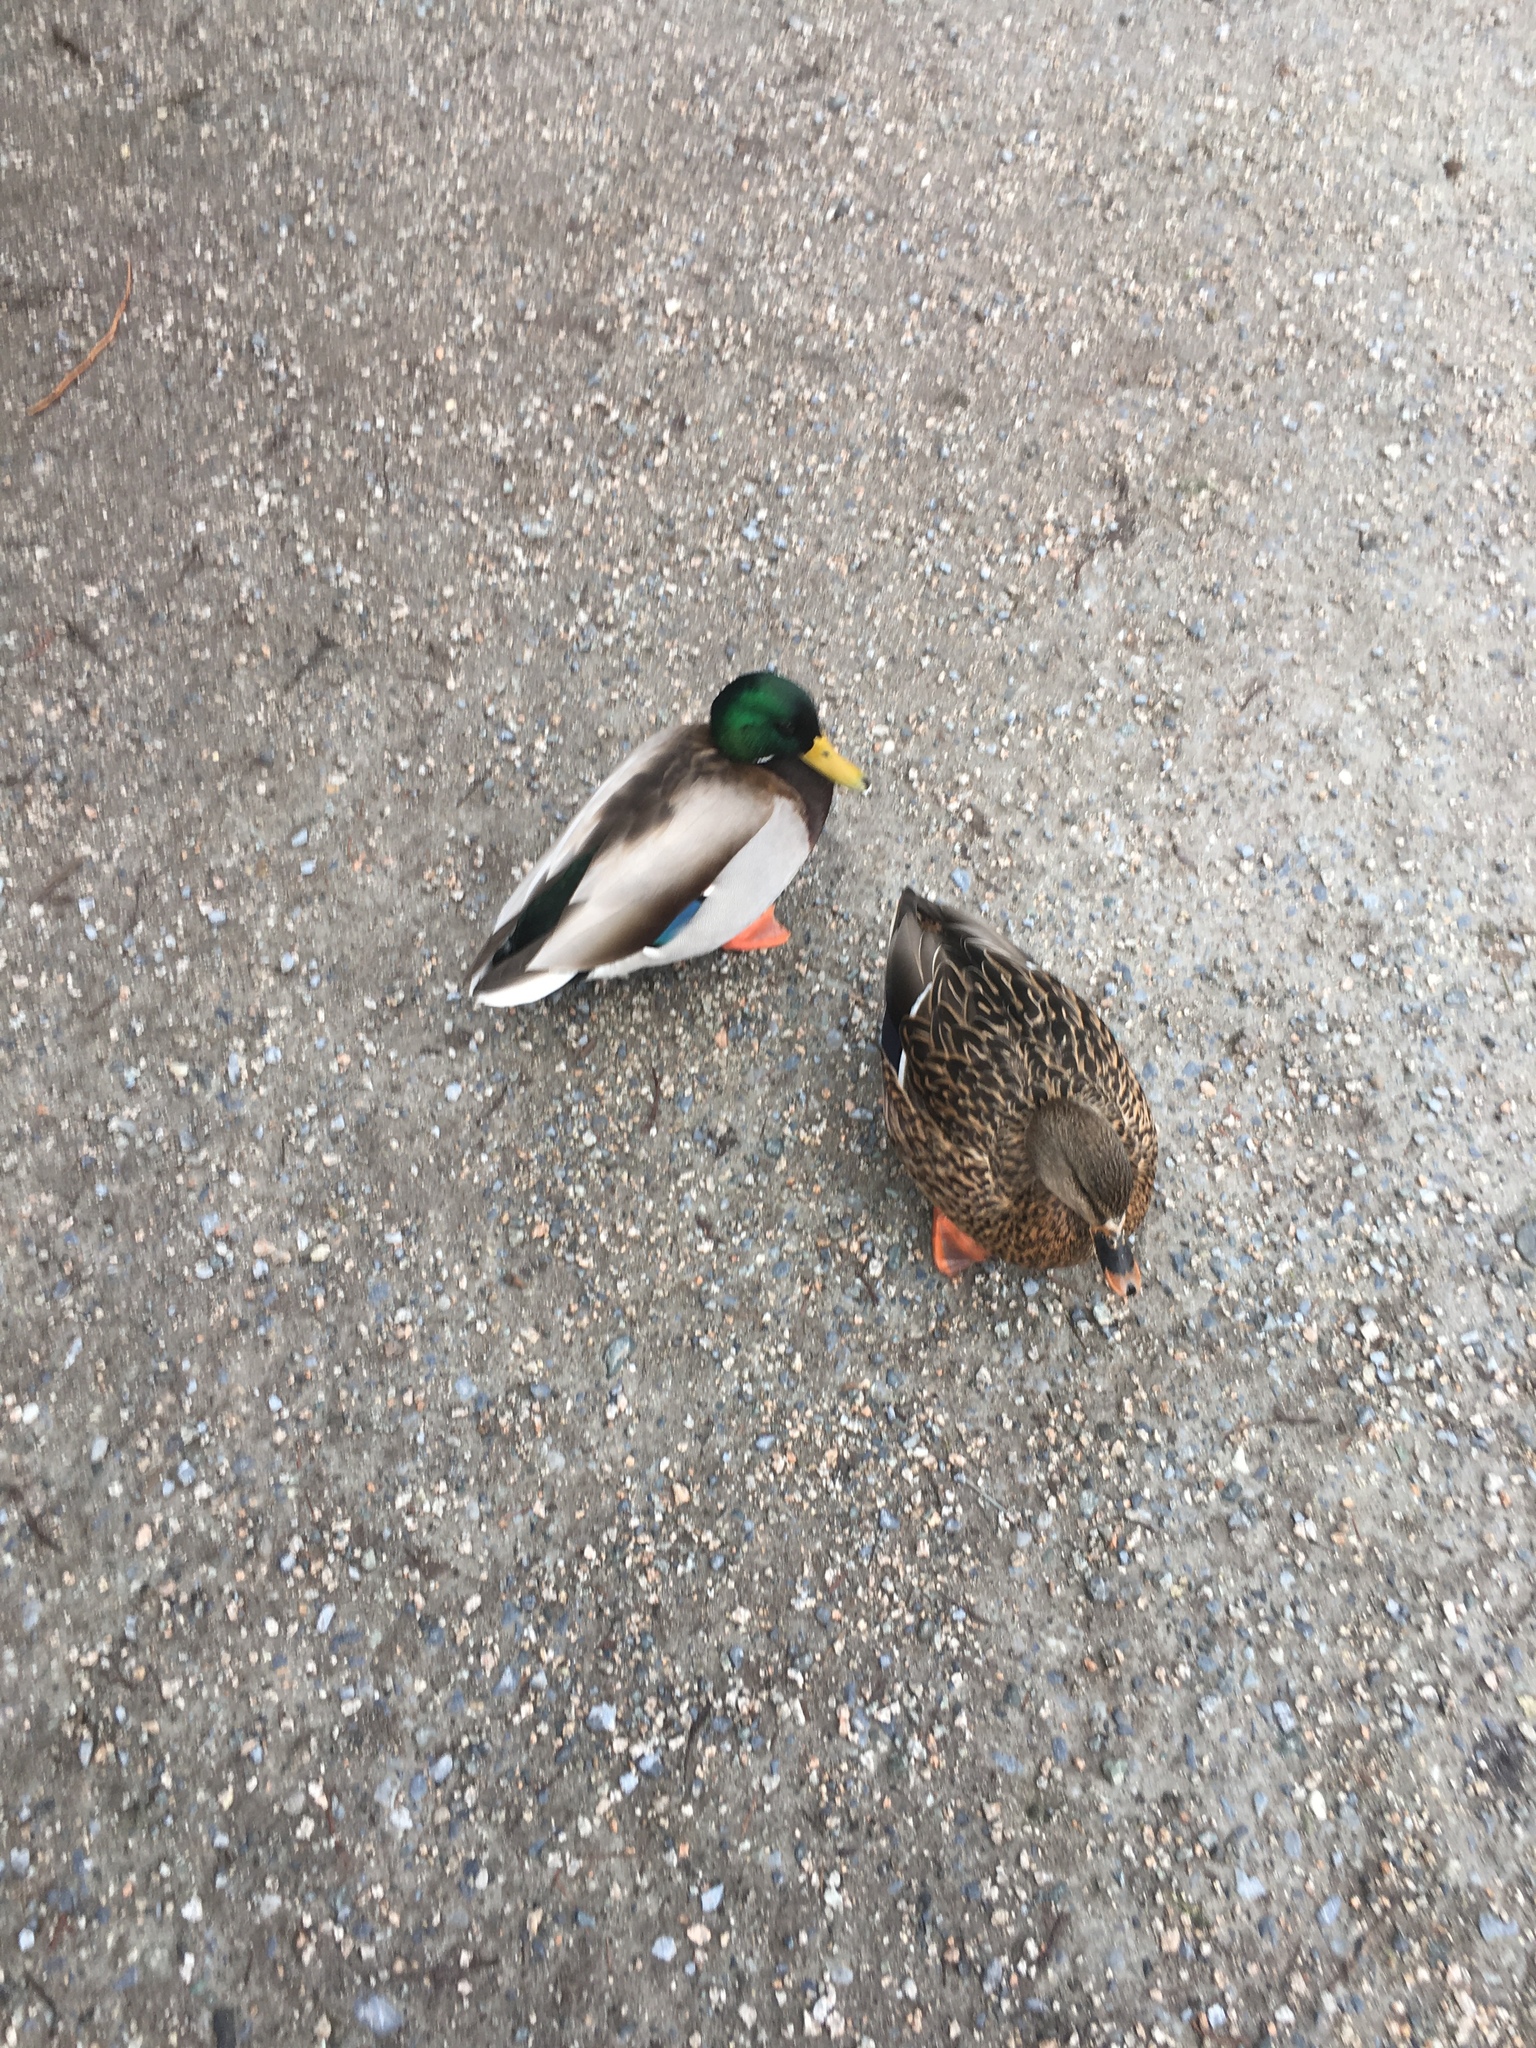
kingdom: Animalia
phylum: Chordata
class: Aves
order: Anseriformes
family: Anatidae
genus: Anas
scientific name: Anas platyrhynchos
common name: Mallard
